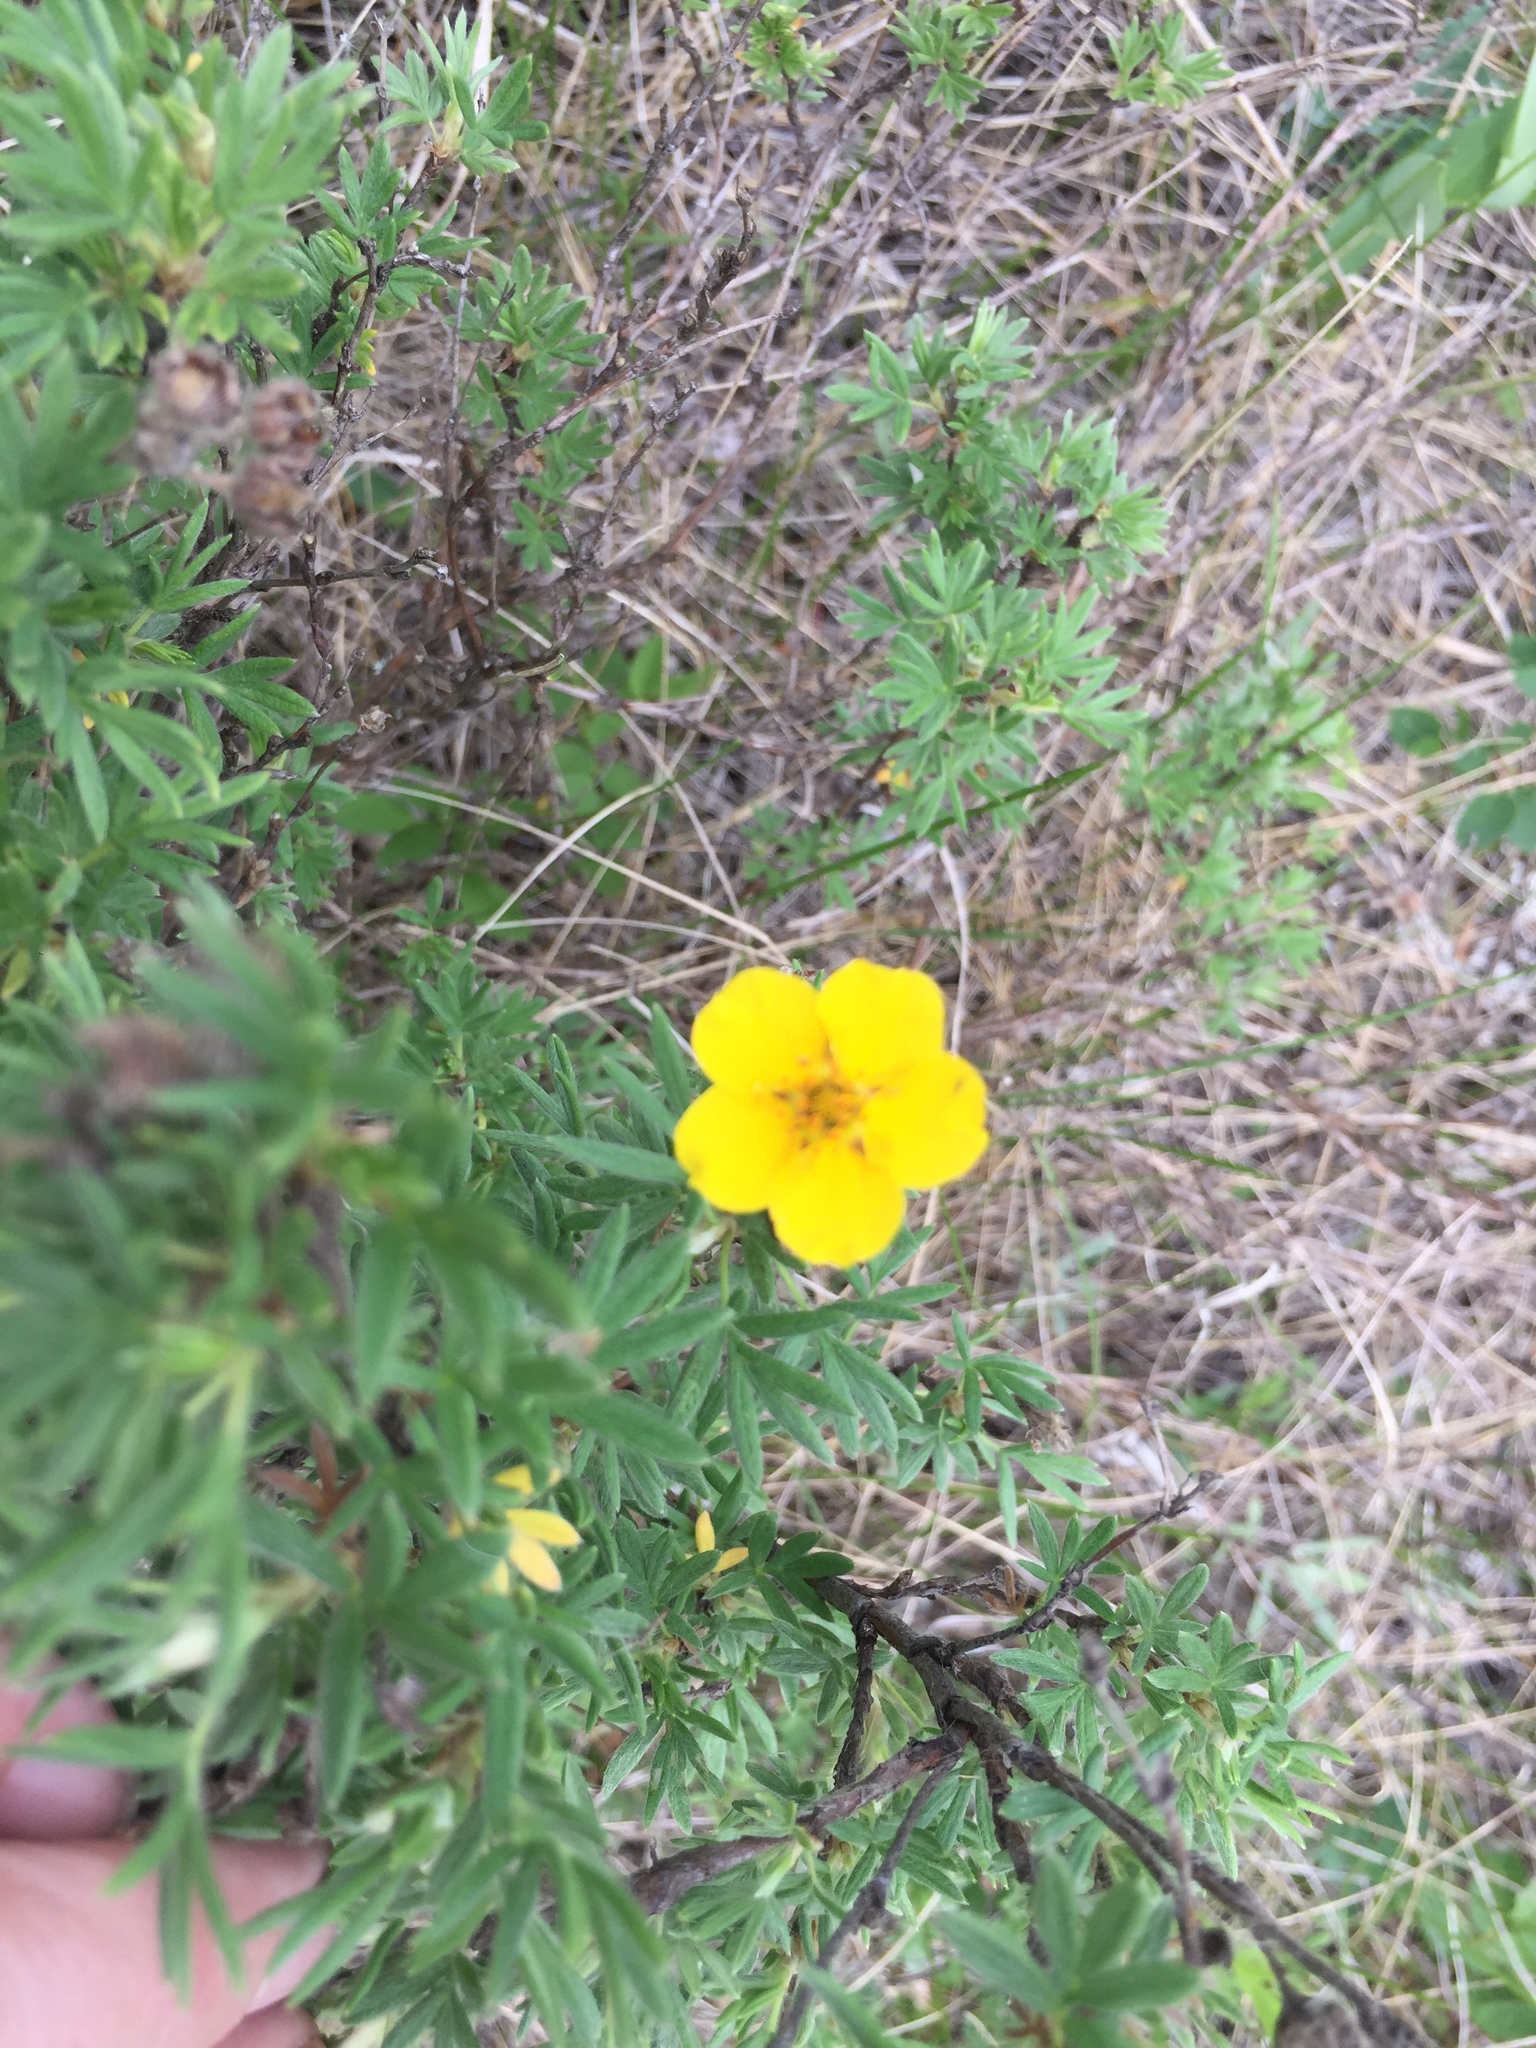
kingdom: Plantae
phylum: Tracheophyta
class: Magnoliopsida
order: Rosales
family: Rosaceae
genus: Dasiphora
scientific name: Dasiphora fruticosa
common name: Shrubby cinquefoil
